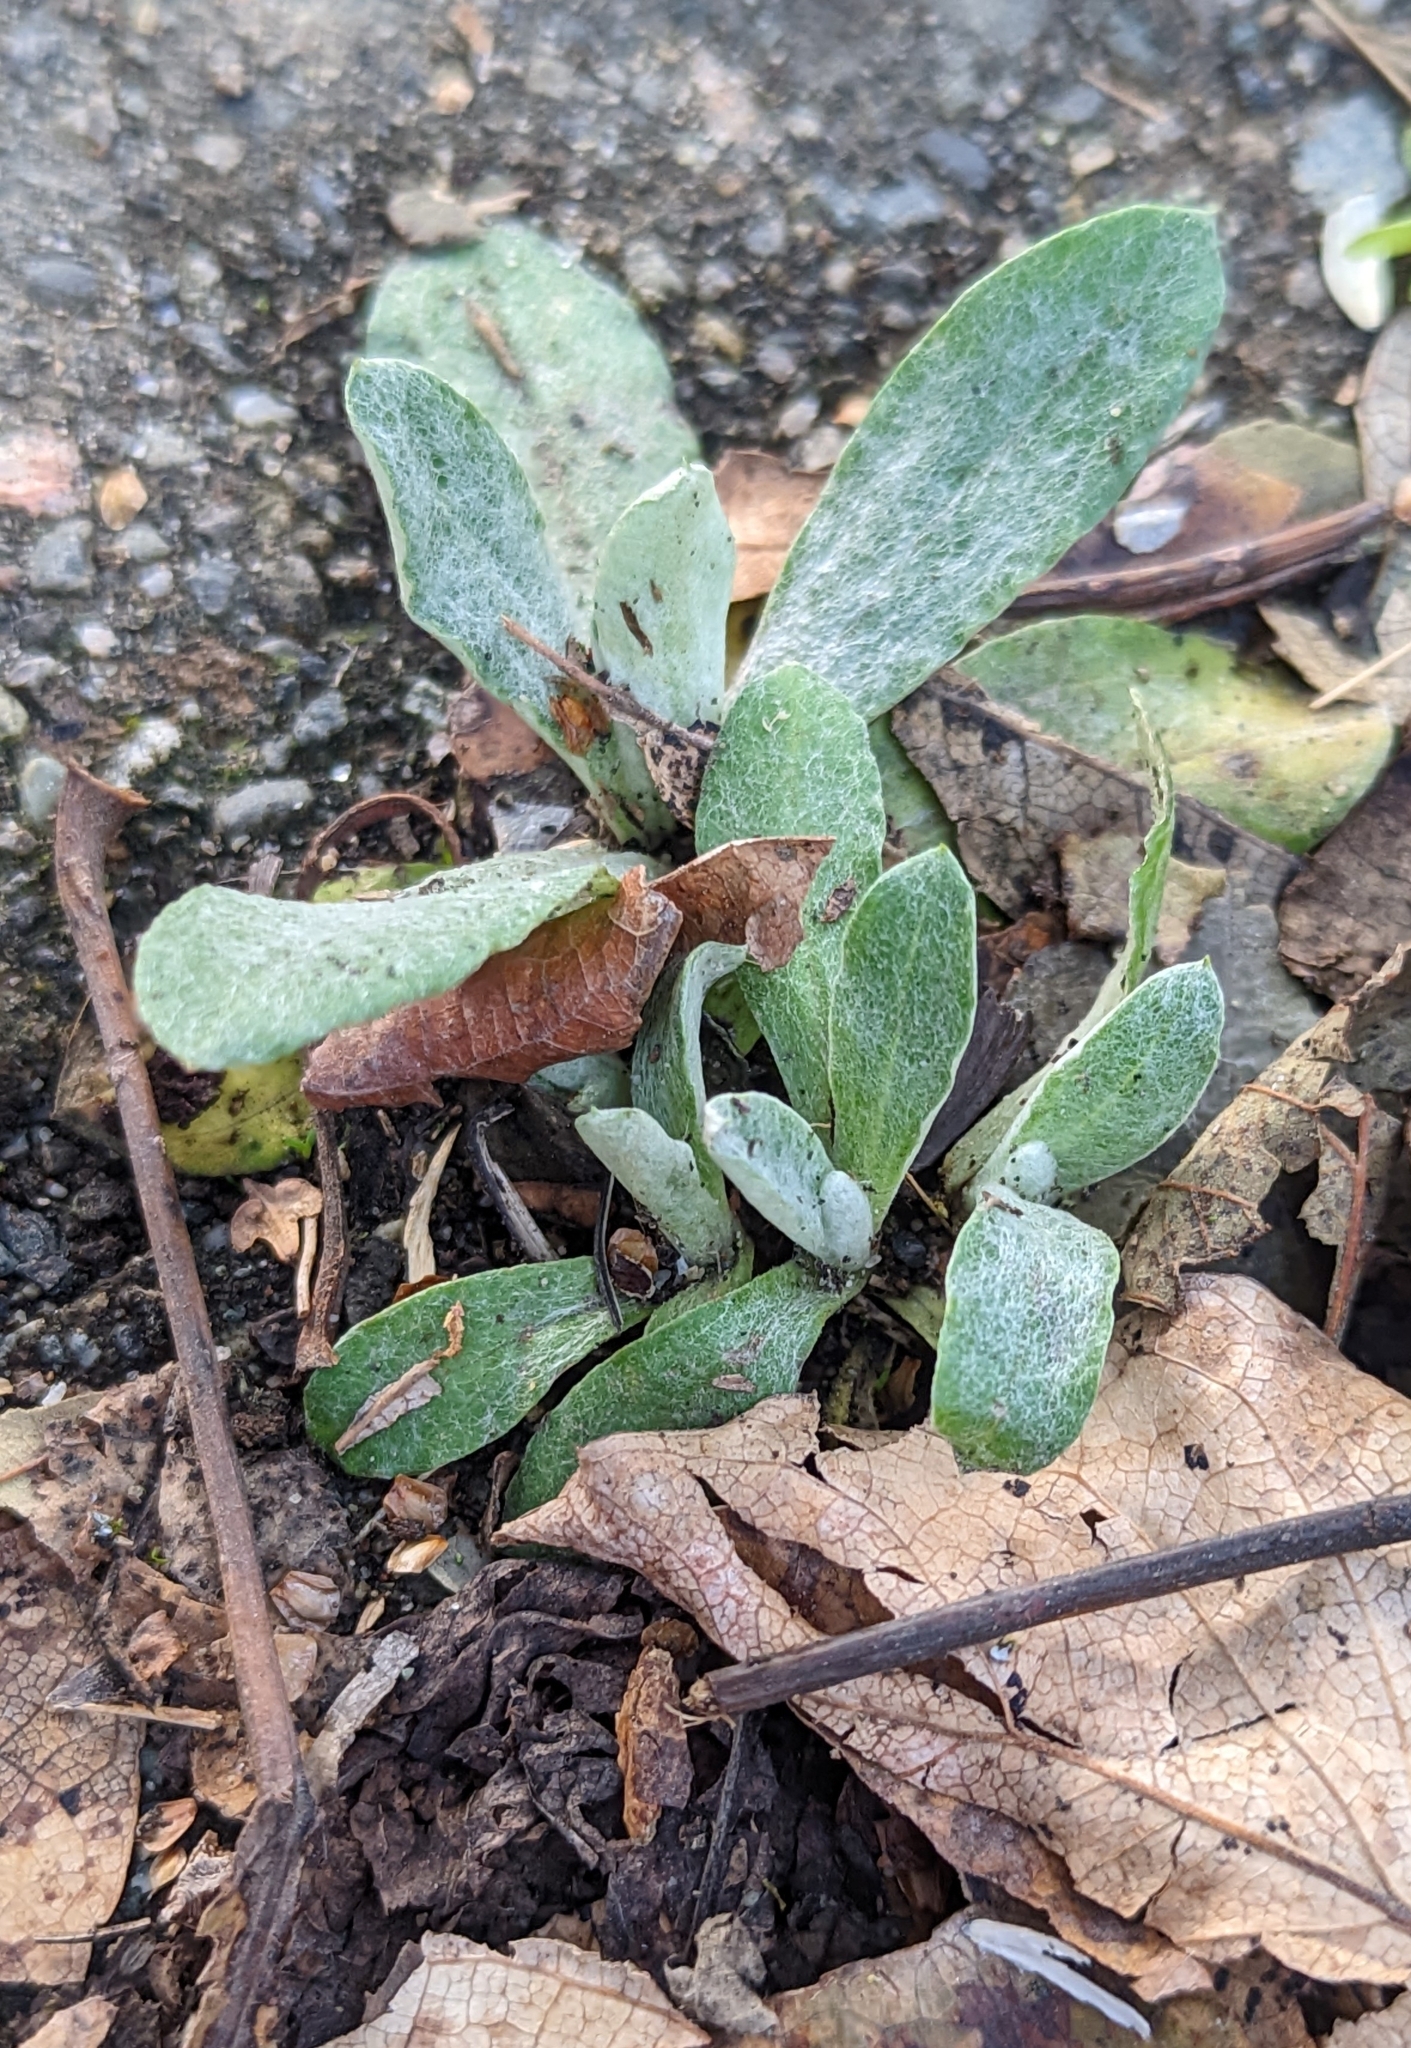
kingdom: Plantae
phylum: Tracheophyta
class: Magnoliopsida
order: Lamiales
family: Scrophulariaceae
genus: Verbascum
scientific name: Verbascum thapsus
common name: Common mullein
